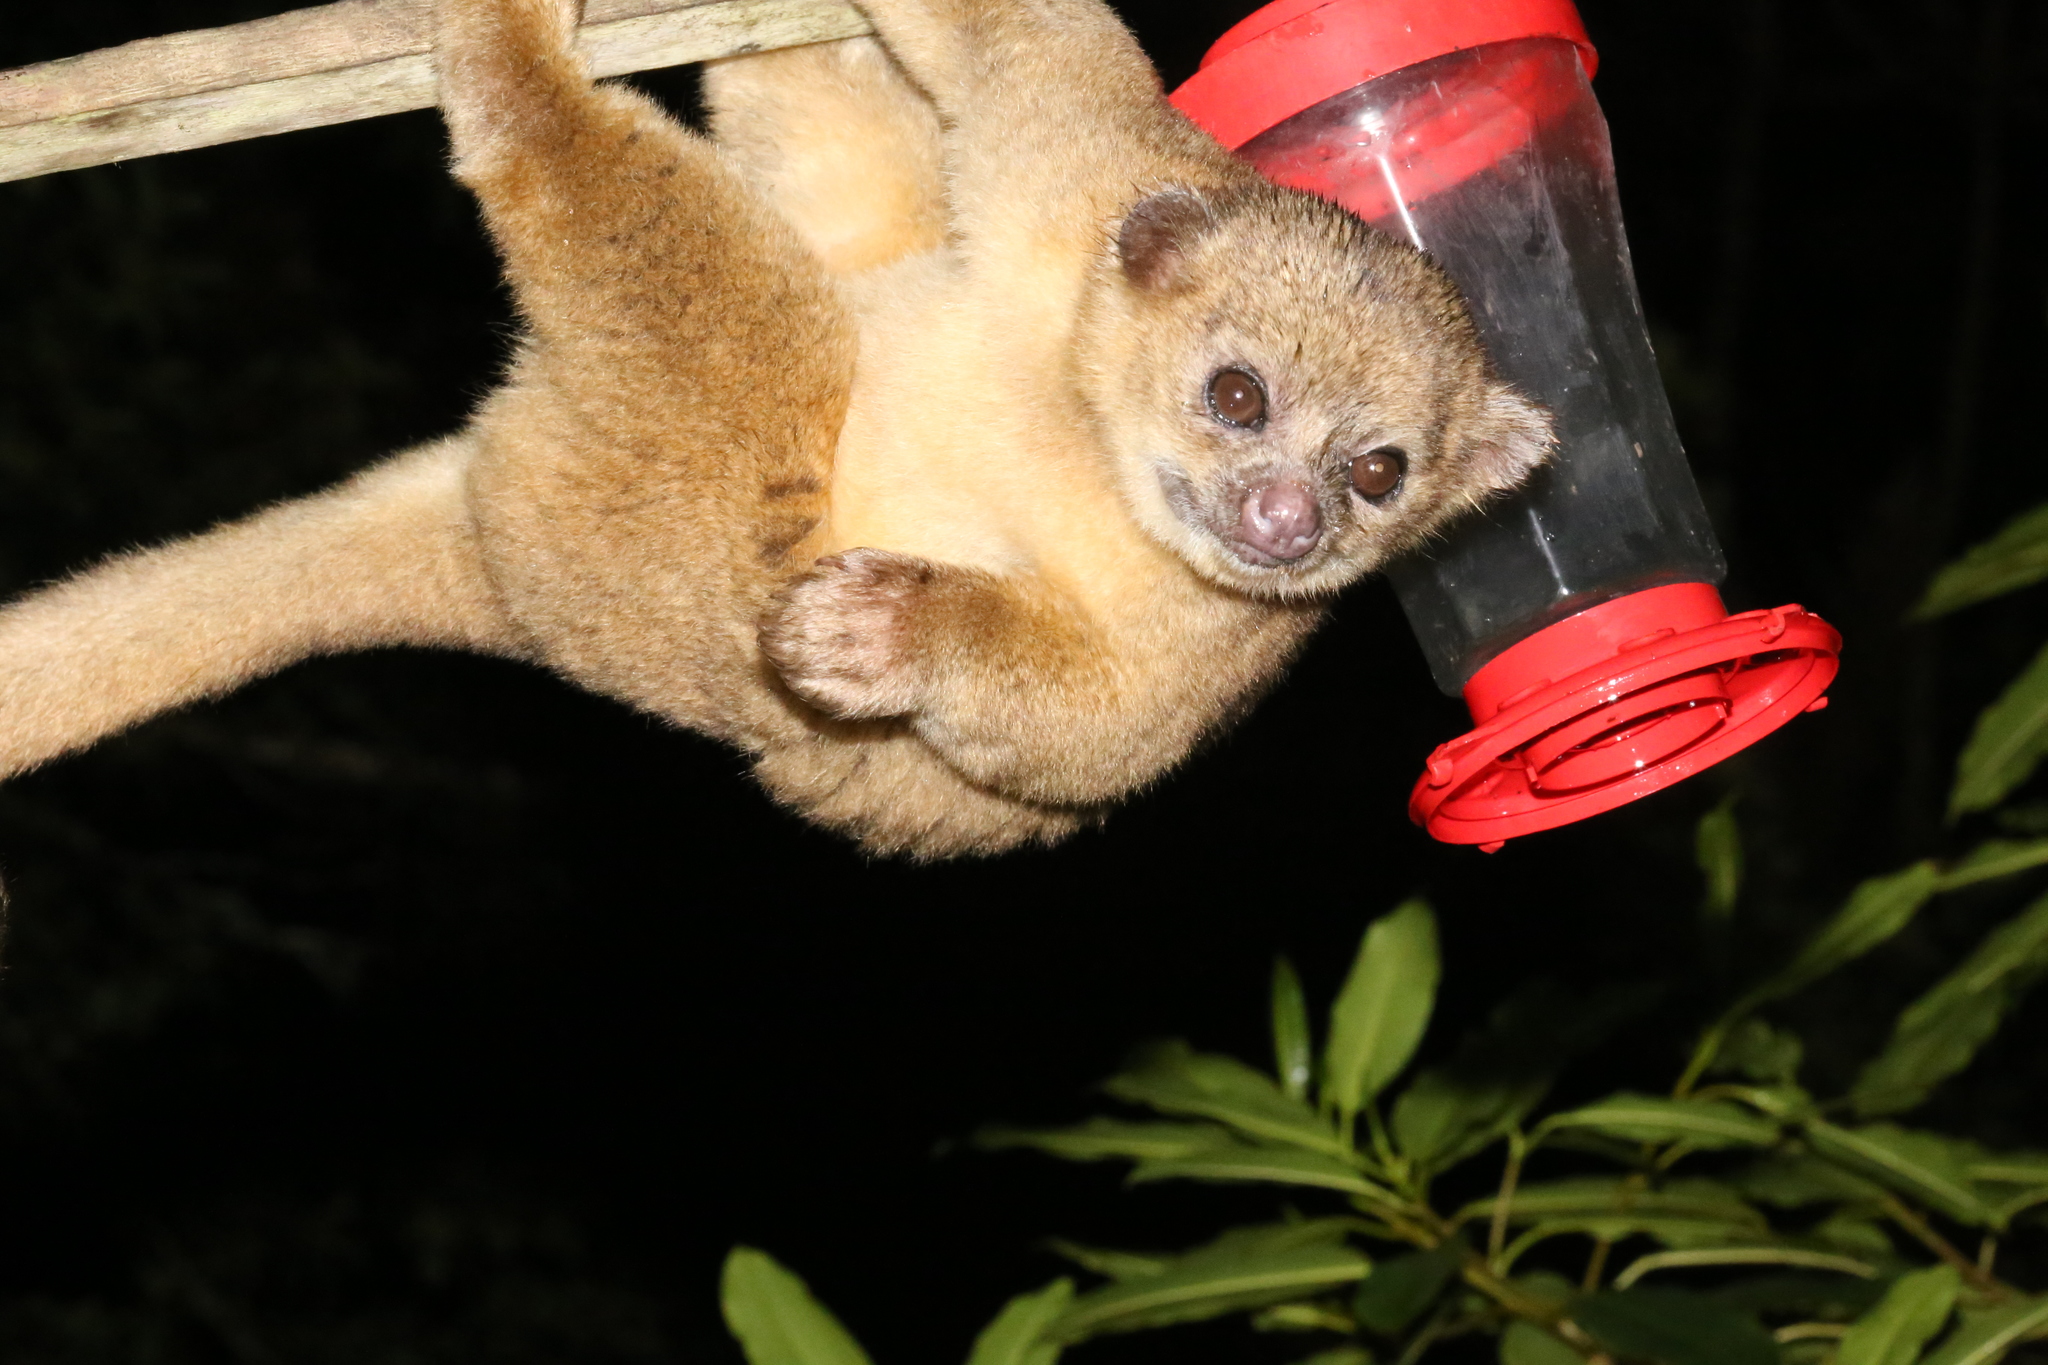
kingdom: Animalia
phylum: Chordata
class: Mammalia
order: Carnivora
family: Procyonidae
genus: Potos
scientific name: Potos flavus
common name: Kinkajou
